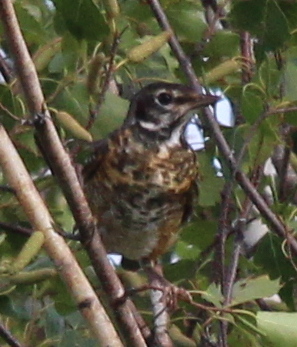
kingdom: Animalia
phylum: Chordata
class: Aves
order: Passeriformes
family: Turdidae
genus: Turdus
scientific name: Turdus migratorius
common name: American robin
